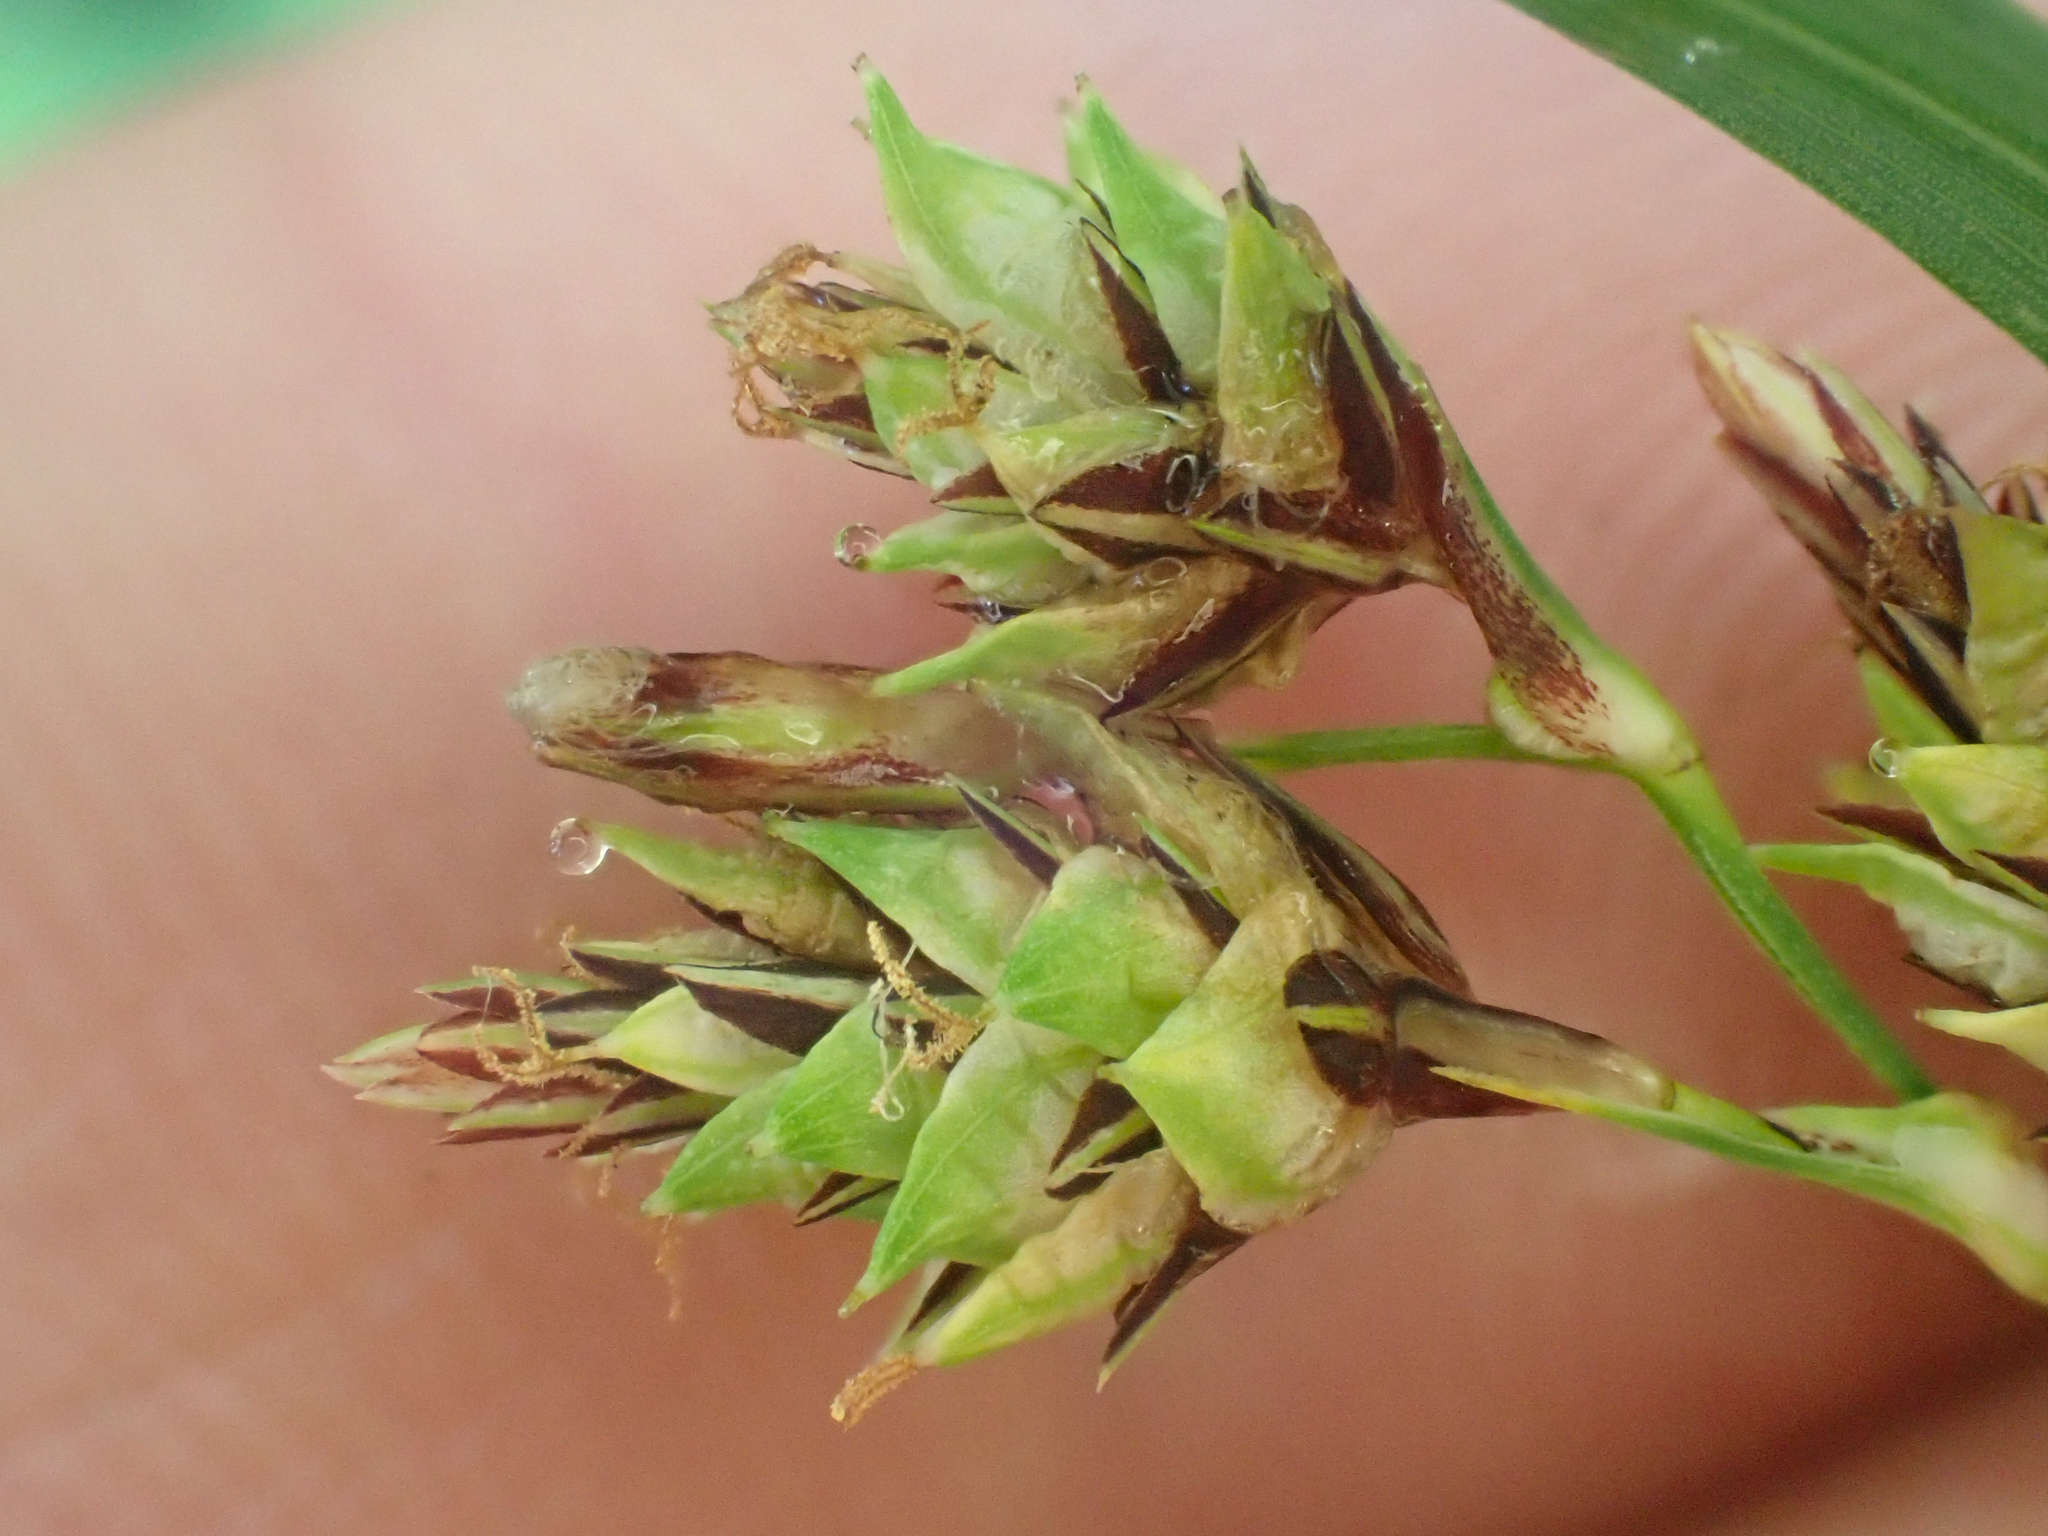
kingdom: Plantae
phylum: Tracheophyta
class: Liliopsida
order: Poales
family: Cyperaceae
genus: Carex
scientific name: Carex mertensii
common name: Mertens' sedge
